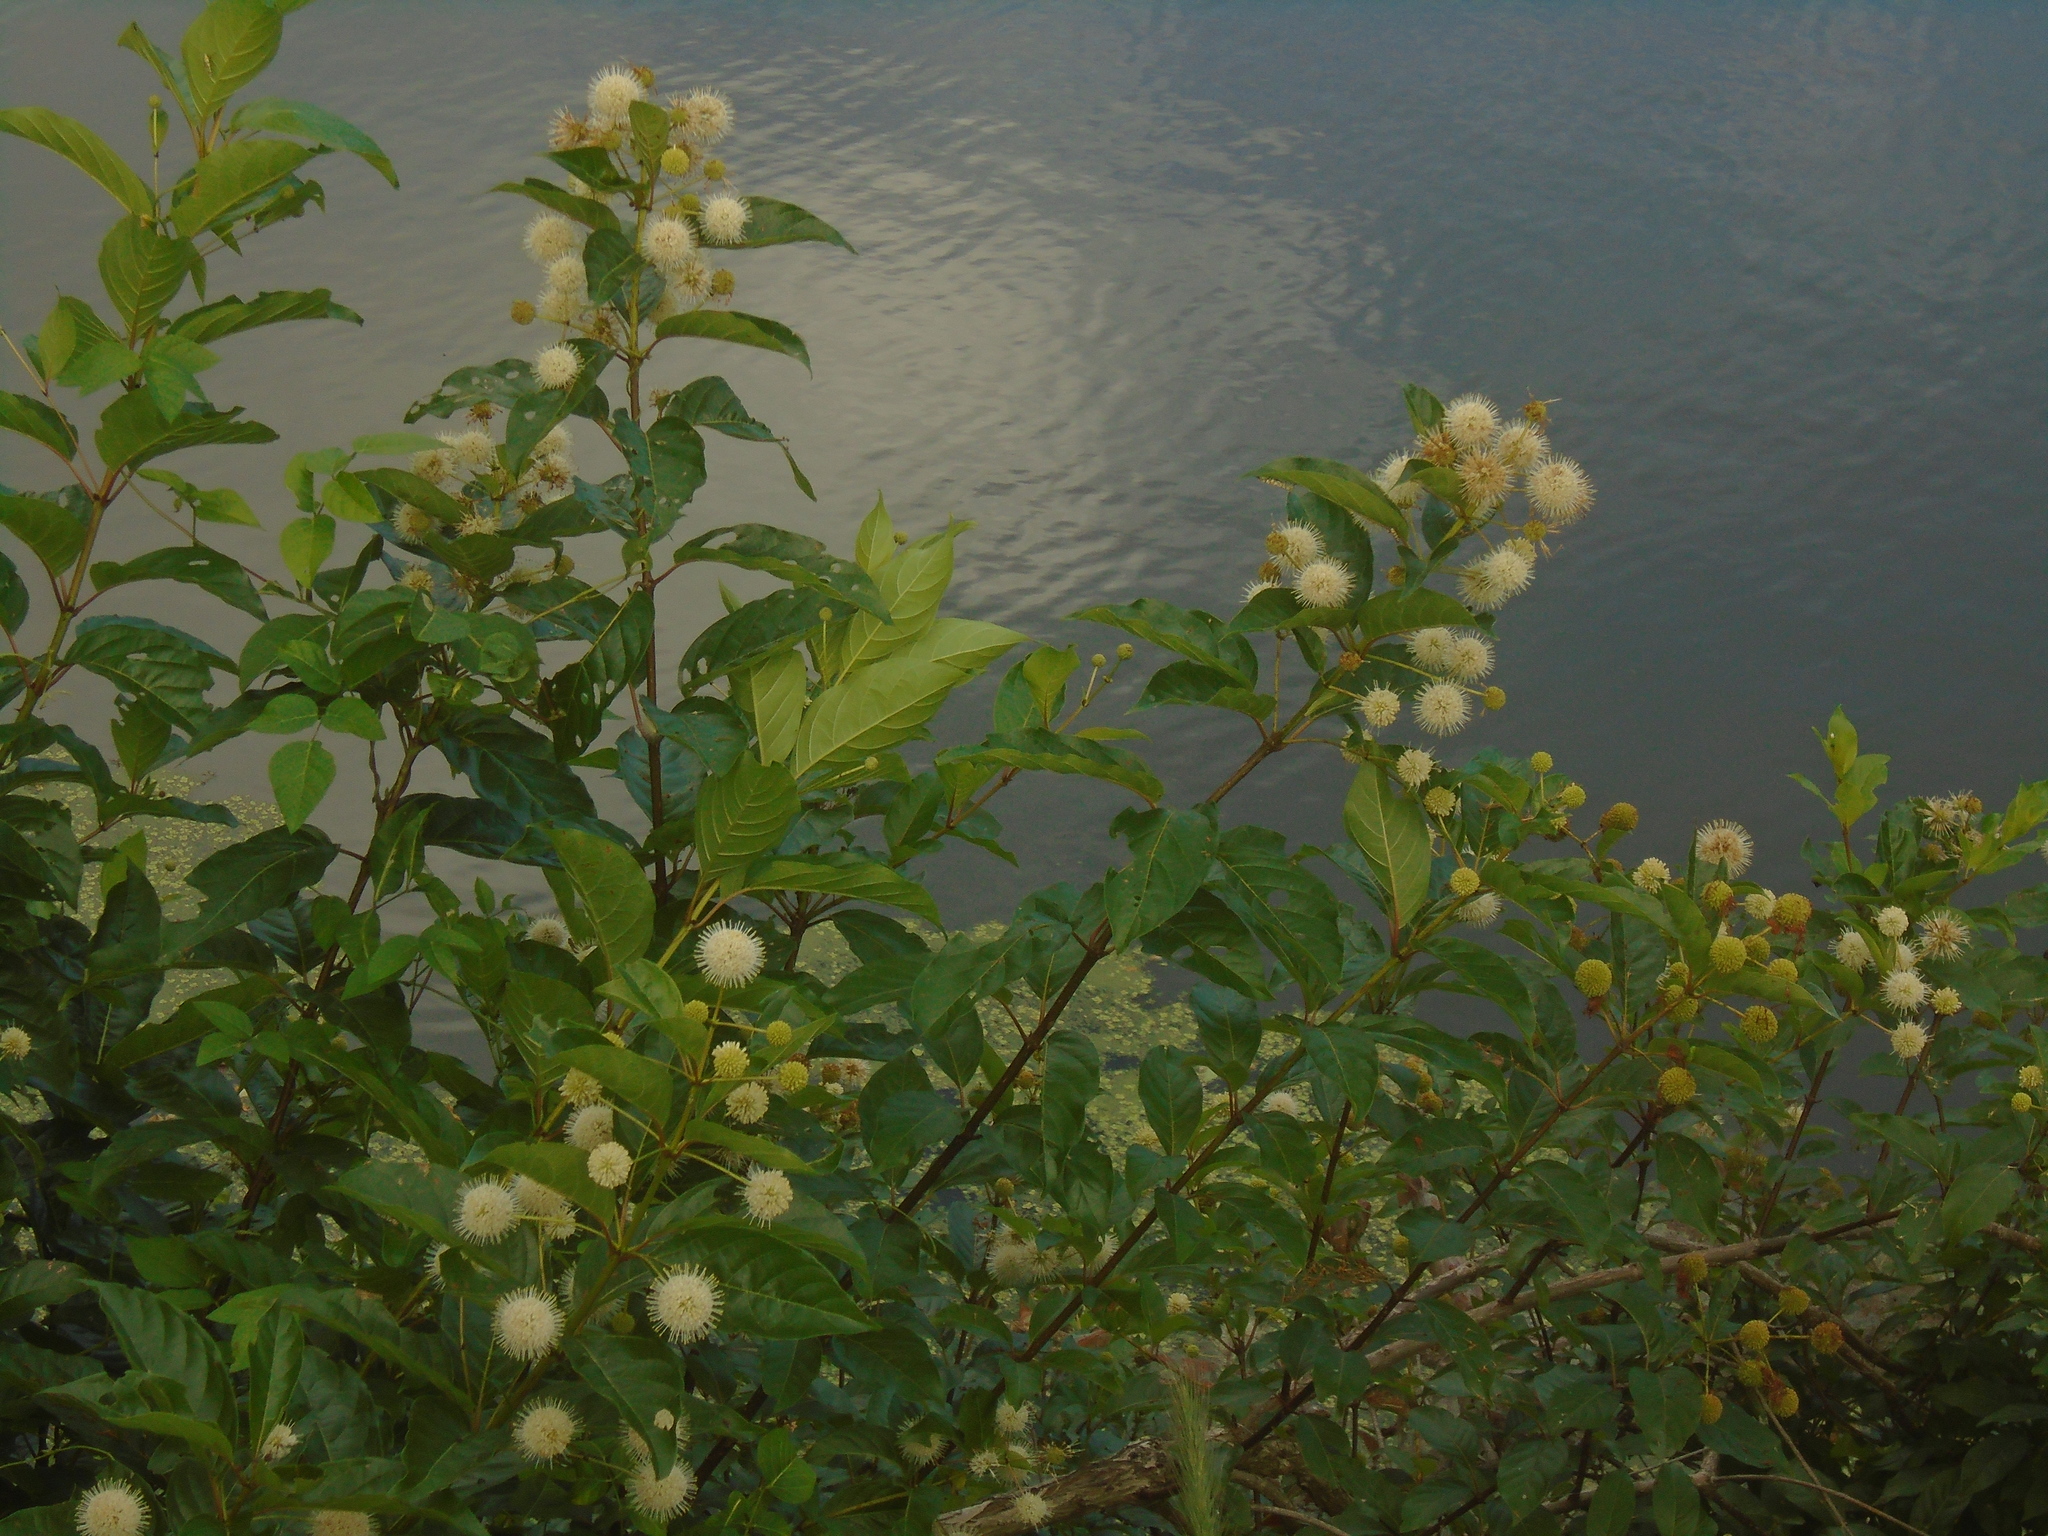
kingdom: Plantae
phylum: Tracheophyta
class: Magnoliopsida
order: Gentianales
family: Rubiaceae
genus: Cephalanthus
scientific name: Cephalanthus occidentalis
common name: Button-willow
